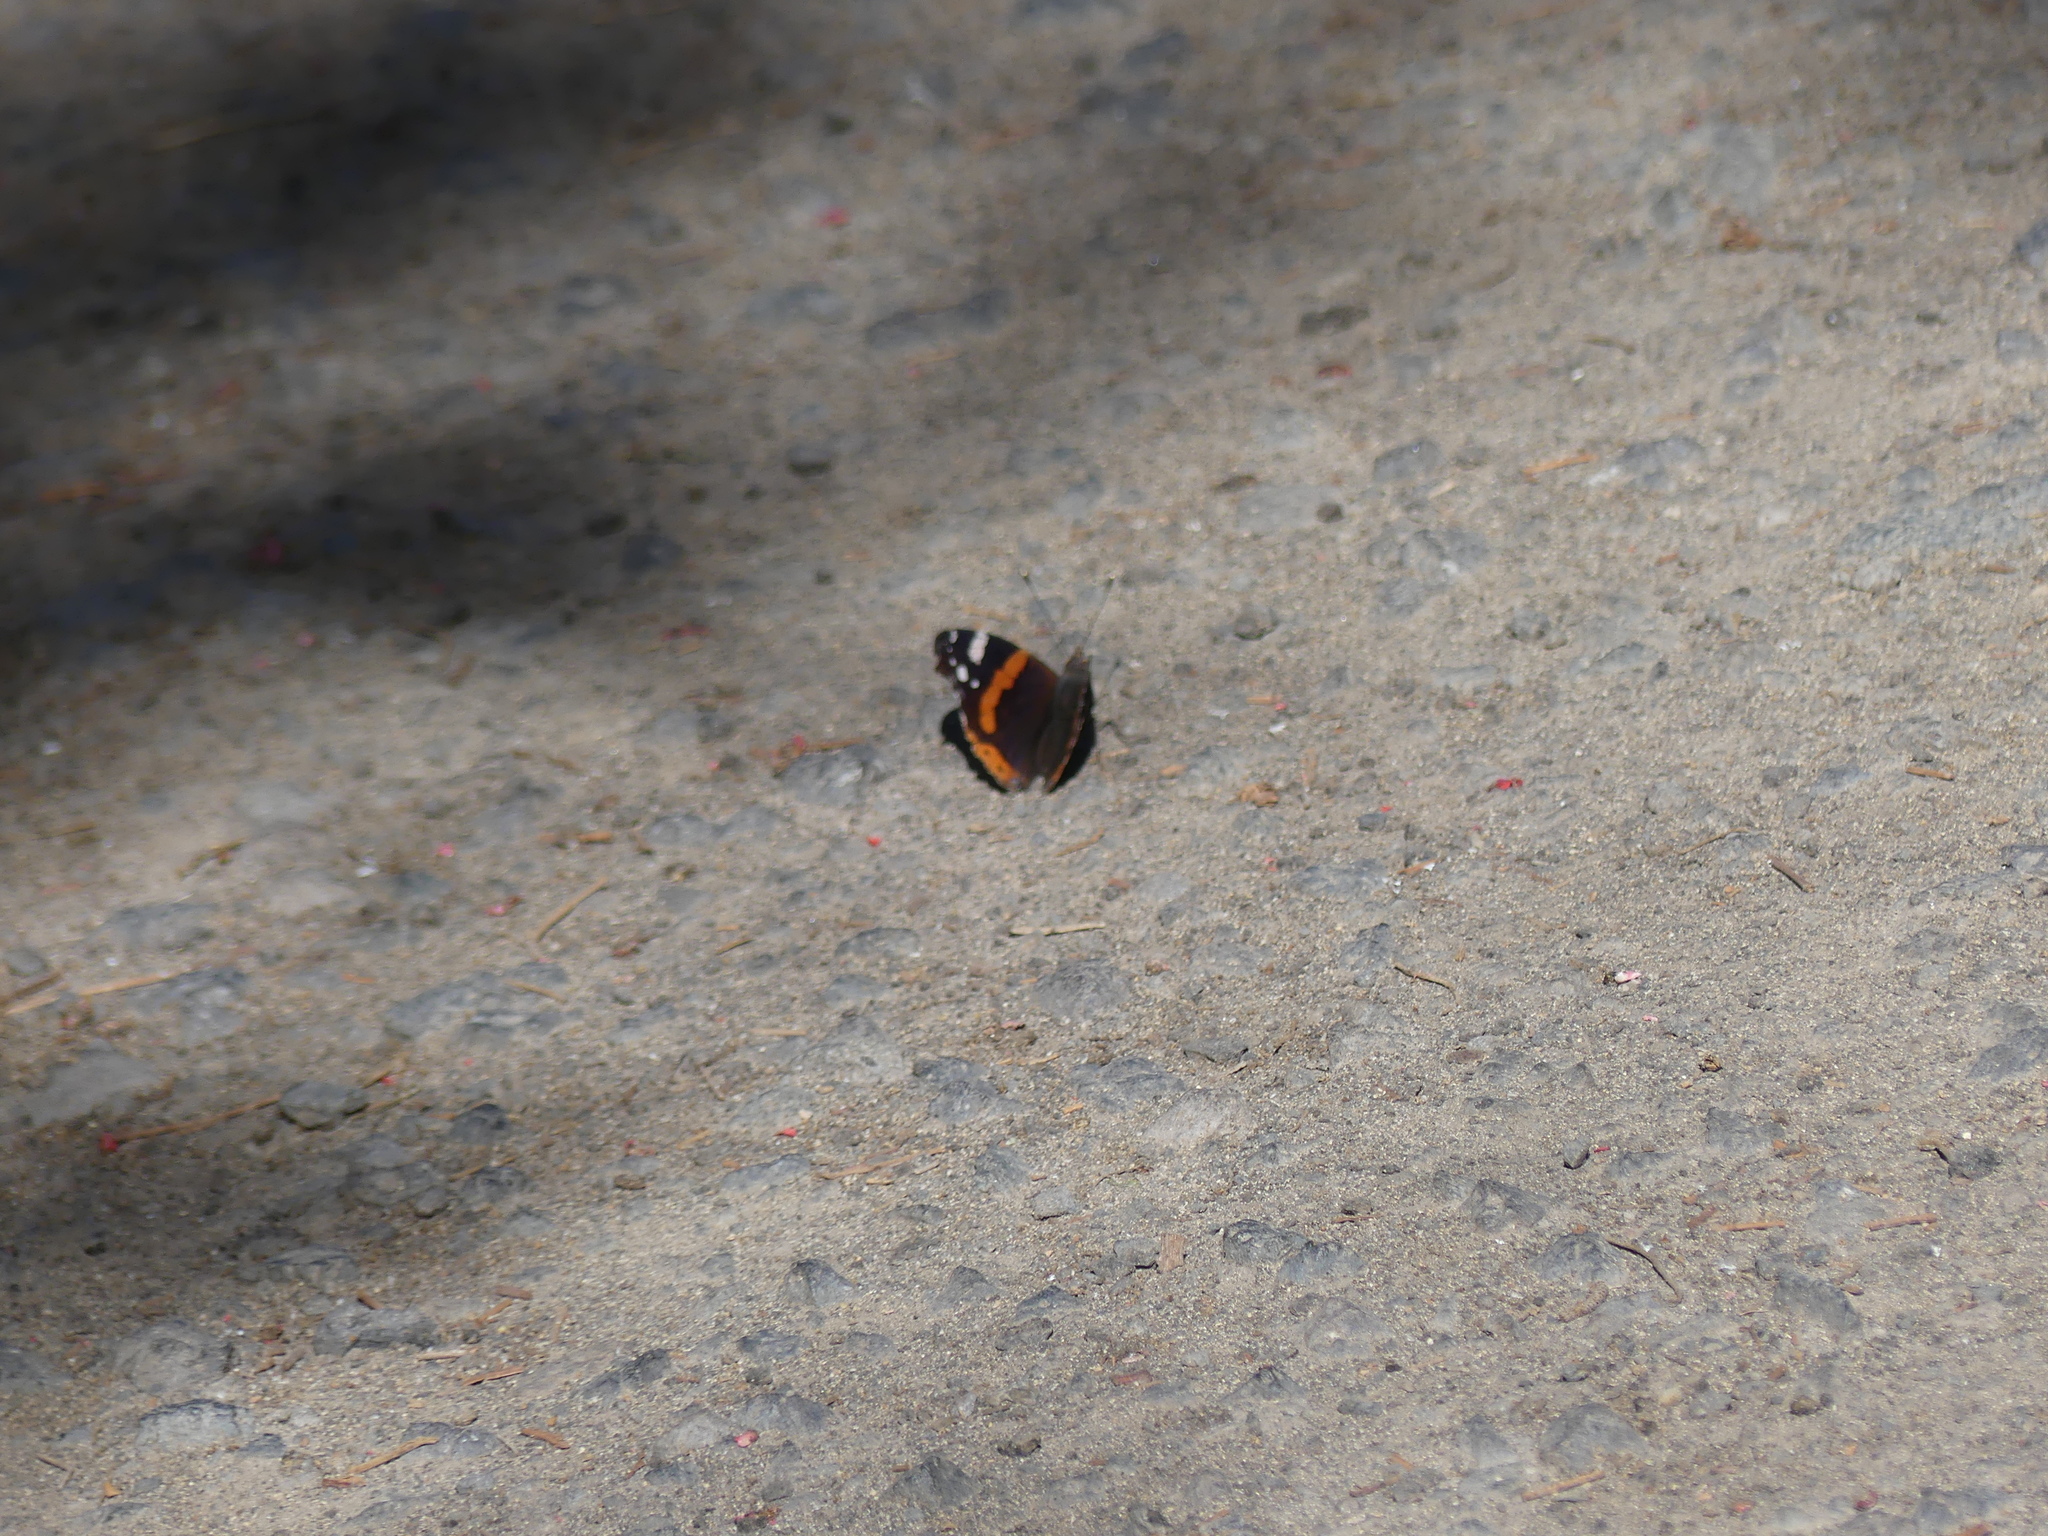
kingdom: Animalia
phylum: Arthropoda
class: Insecta
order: Lepidoptera
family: Nymphalidae
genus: Vanessa
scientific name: Vanessa atalanta
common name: Red admiral
